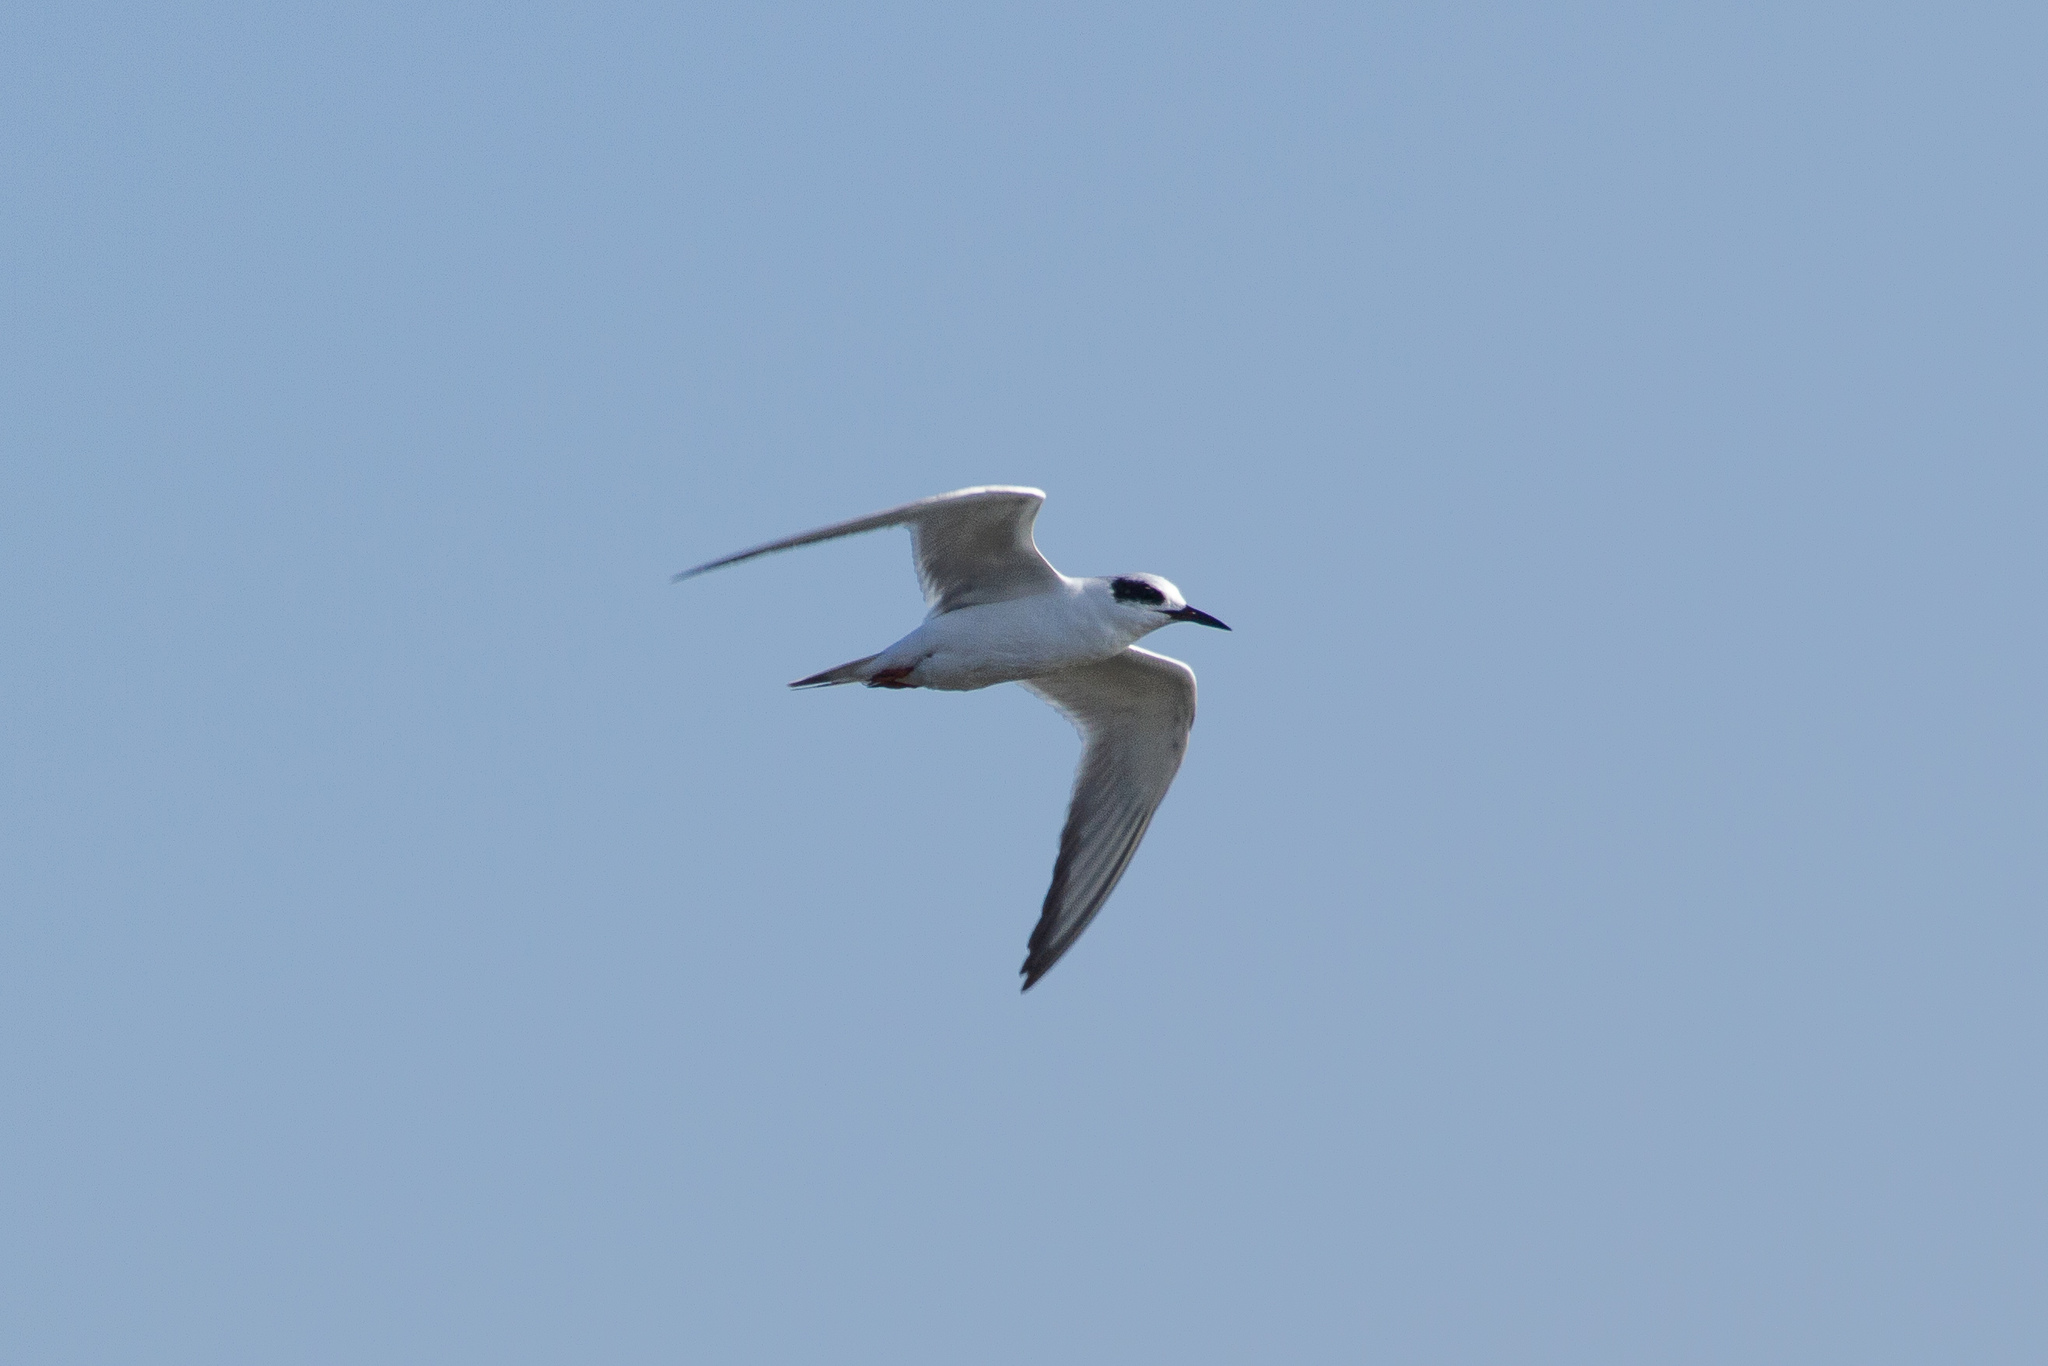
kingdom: Animalia
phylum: Chordata
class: Aves
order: Charadriiformes
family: Laridae
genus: Sterna
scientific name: Sterna forsteri
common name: Forster's tern
